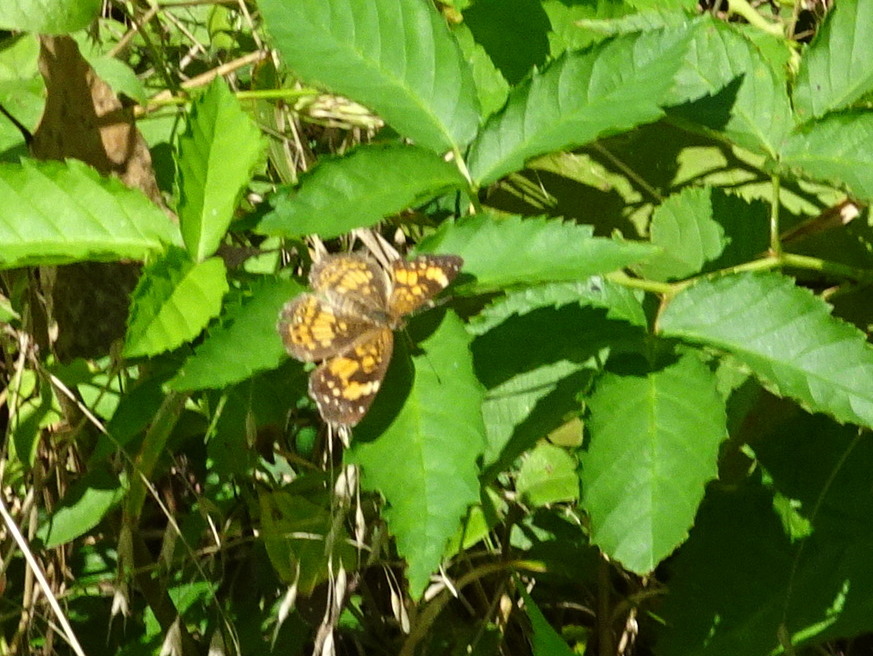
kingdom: Animalia
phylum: Arthropoda
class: Insecta
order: Lepidoptera
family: Nymphalidae
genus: Chlosyne
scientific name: Chlosyne nycteis
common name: Silvery checkerspot
